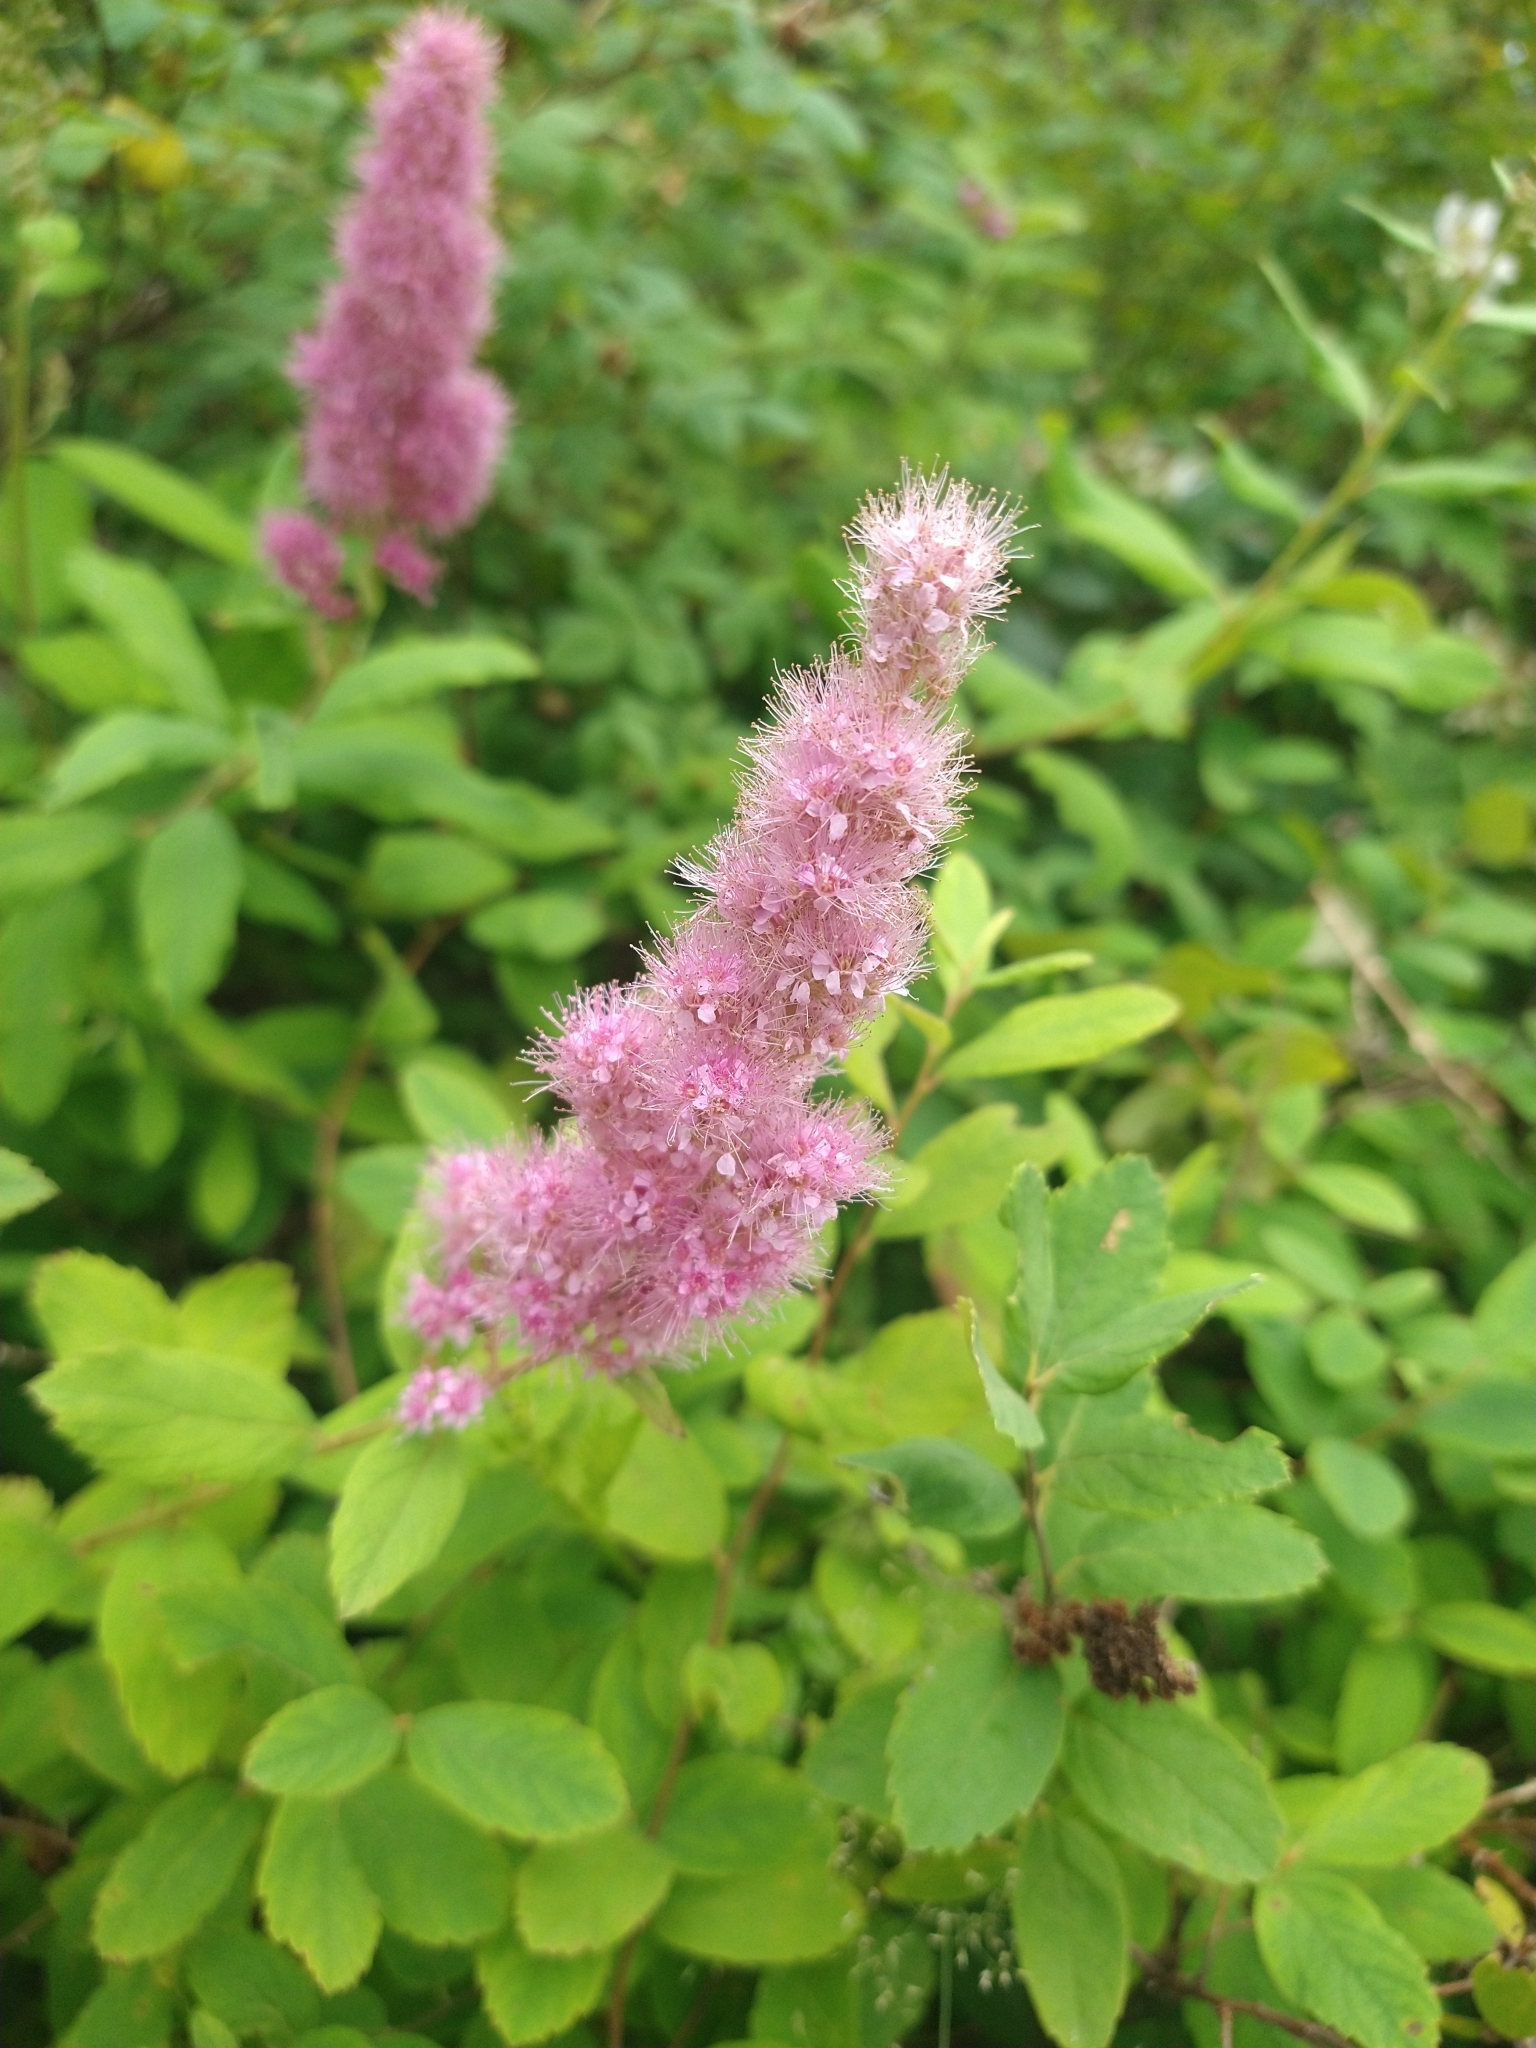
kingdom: Plantae
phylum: Tracheophyta
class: Magnoliopsida
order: Rosales
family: Rosaceae
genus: Spiraea
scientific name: Spiraea douglasii
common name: Steeplebush
